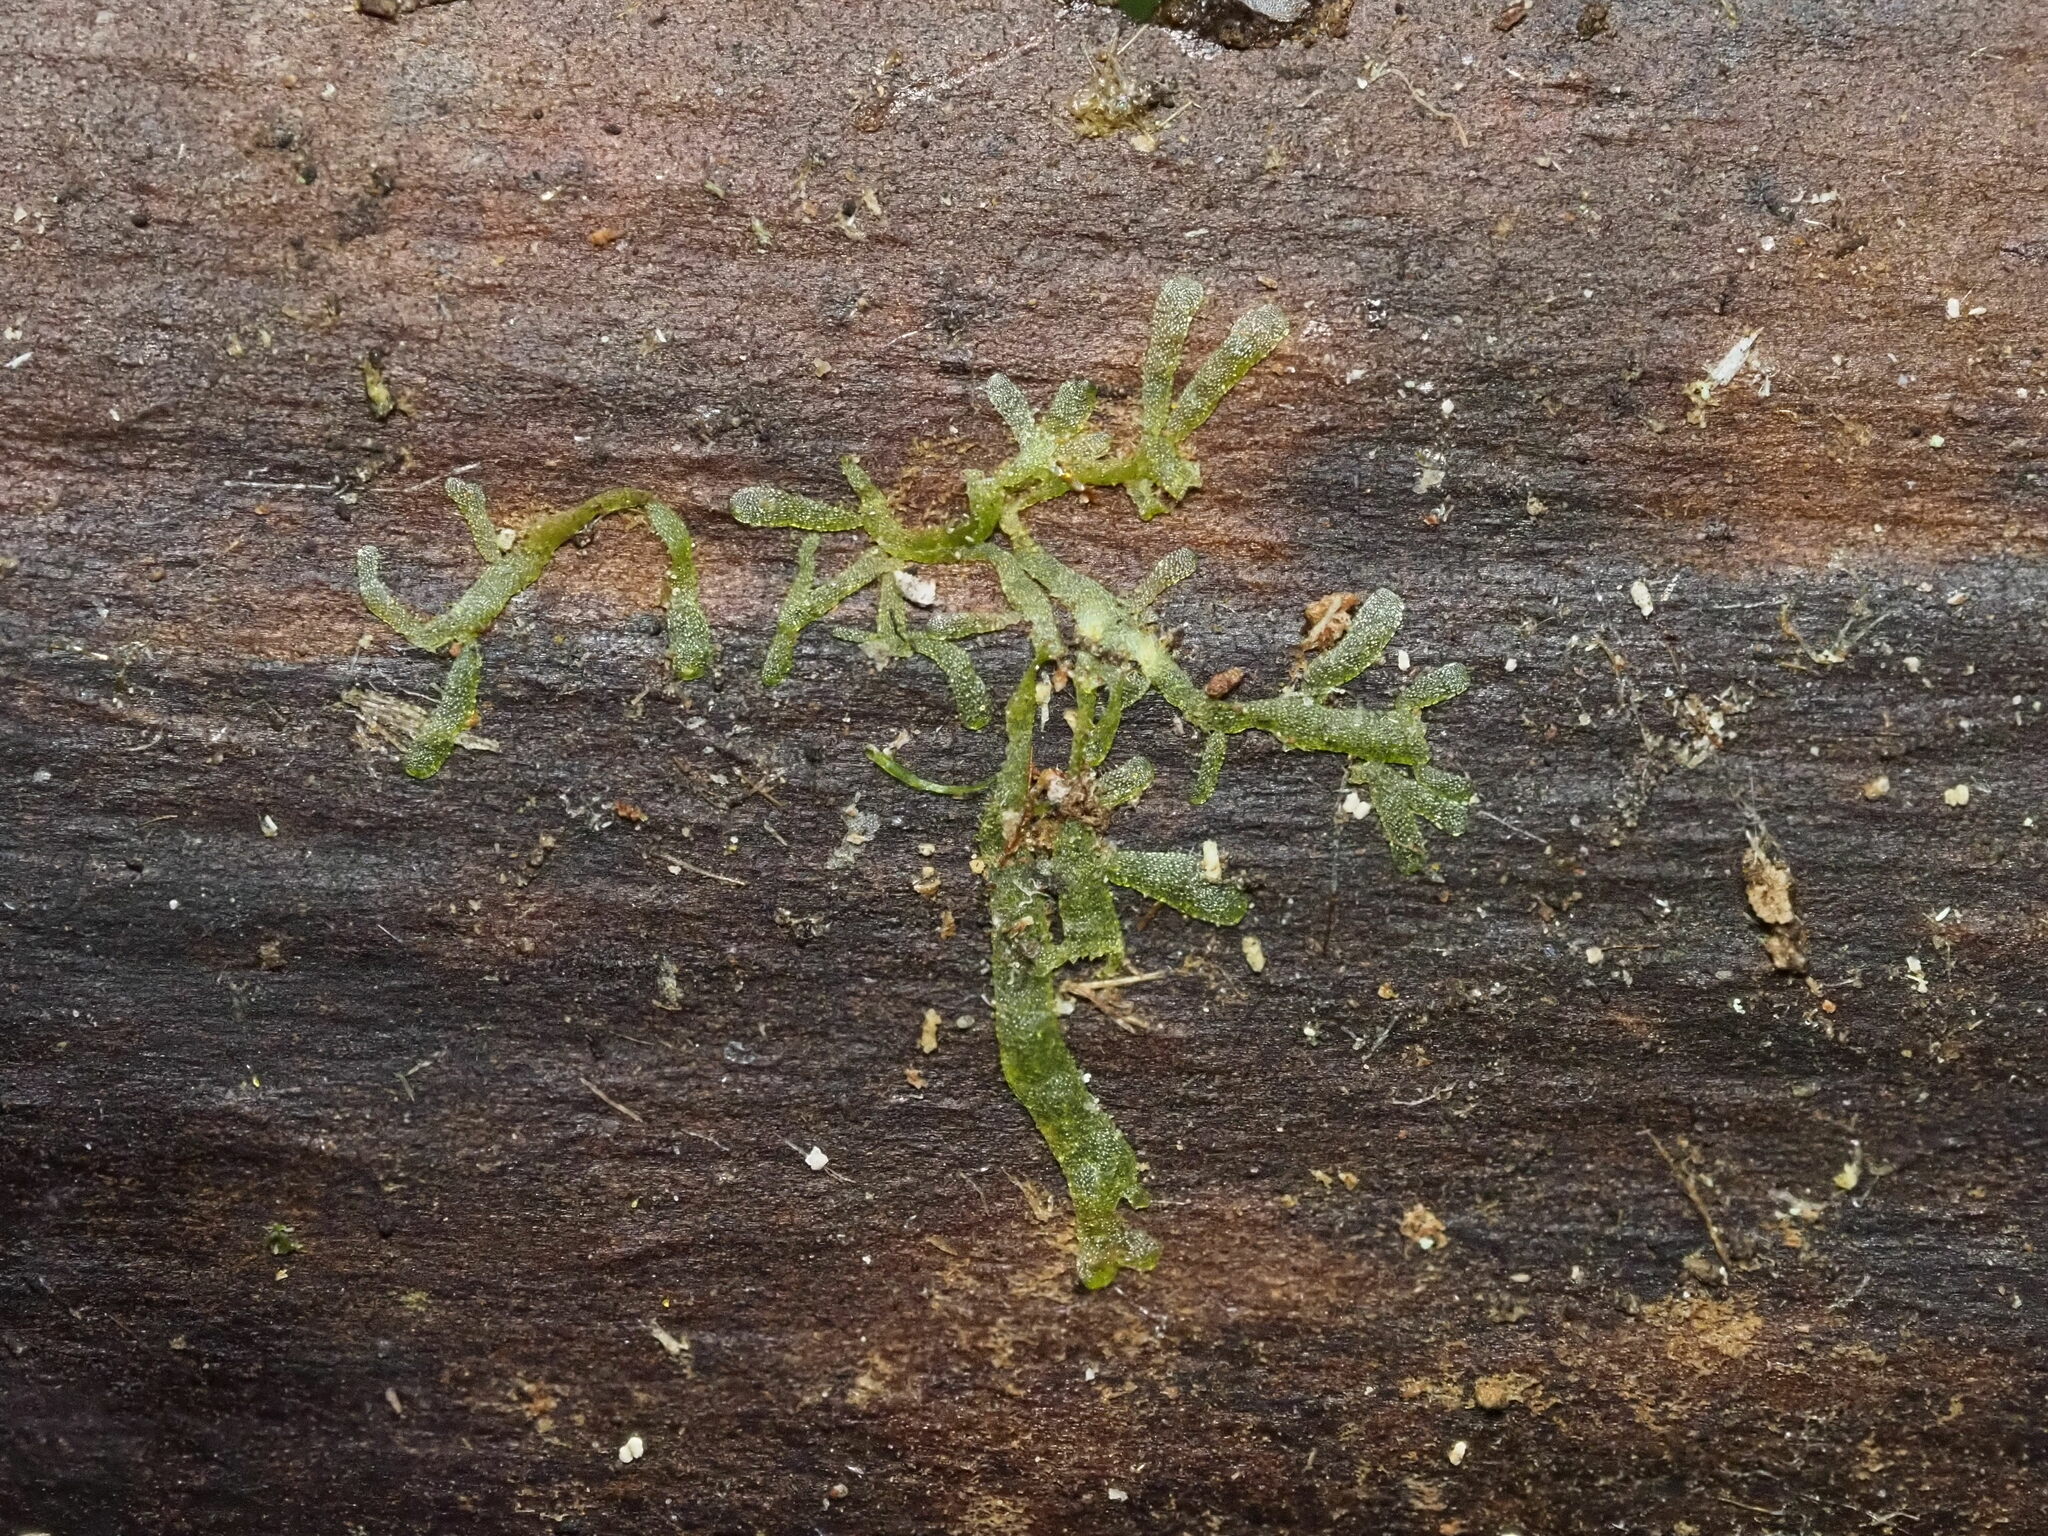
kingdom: Plantae
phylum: Marchantiophyta
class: Jungermanniopsida
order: Metzgeriales
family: Metzgeriaceae
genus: Metzgeria
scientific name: Metzgeria furcata
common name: Forked veilwort
